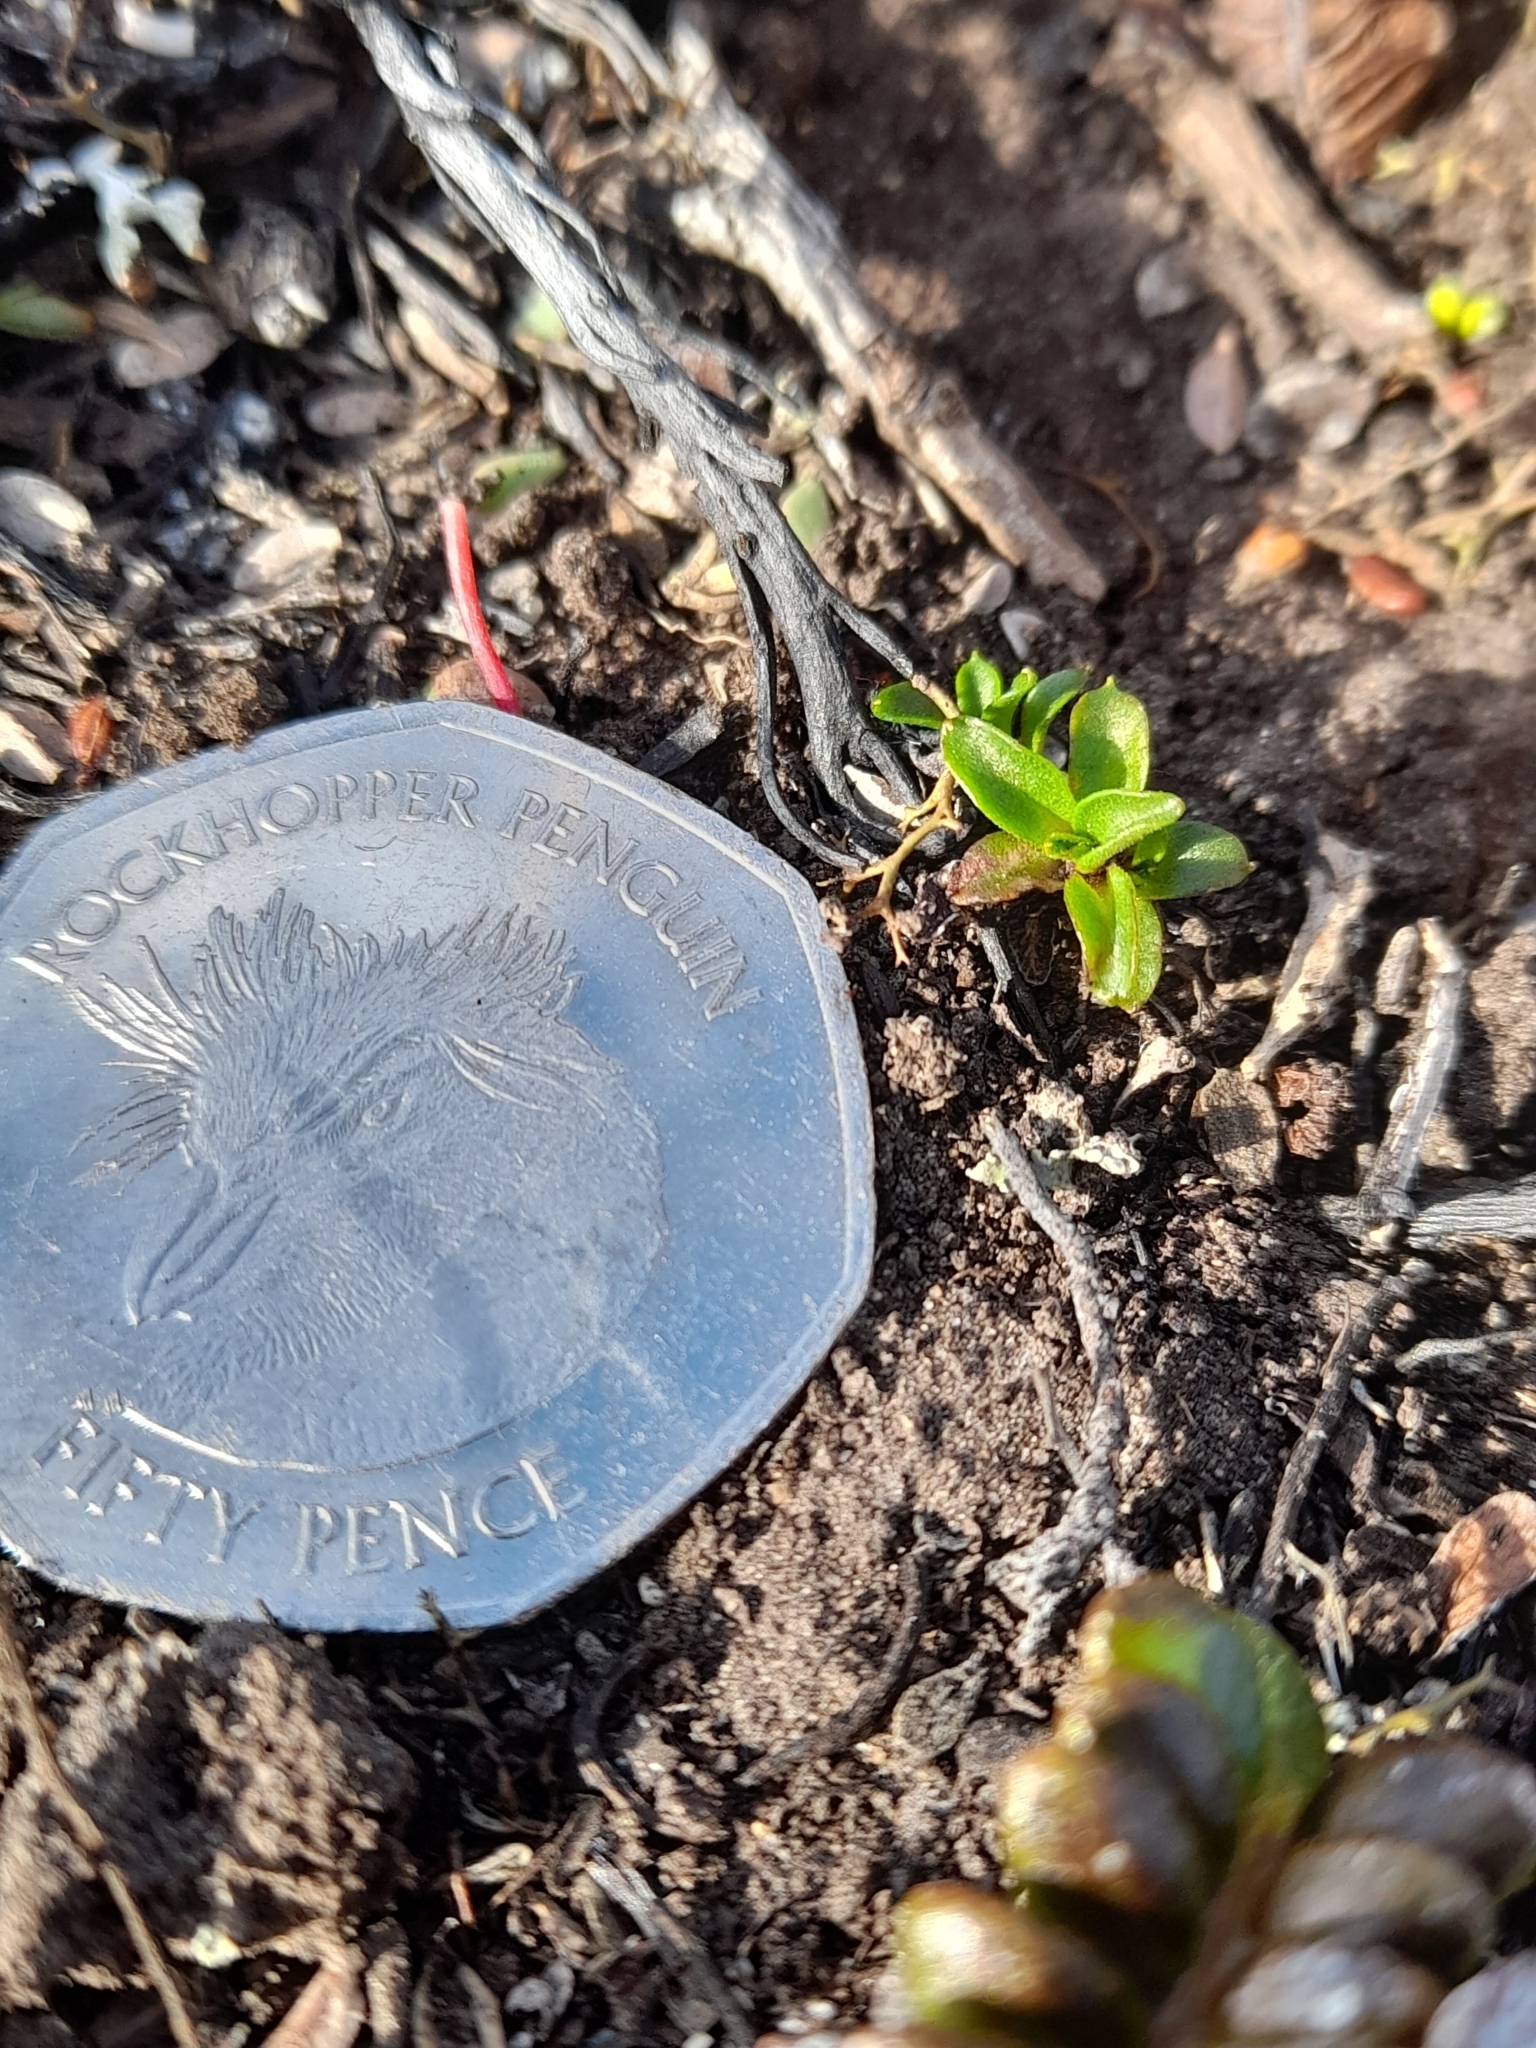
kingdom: Plantae
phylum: Tracheophyta
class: Magnoliopsida
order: Asterales
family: Asteraceae
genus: Gamochaeta
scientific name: Gamochaeta antarctica
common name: Antarctic cudweed
